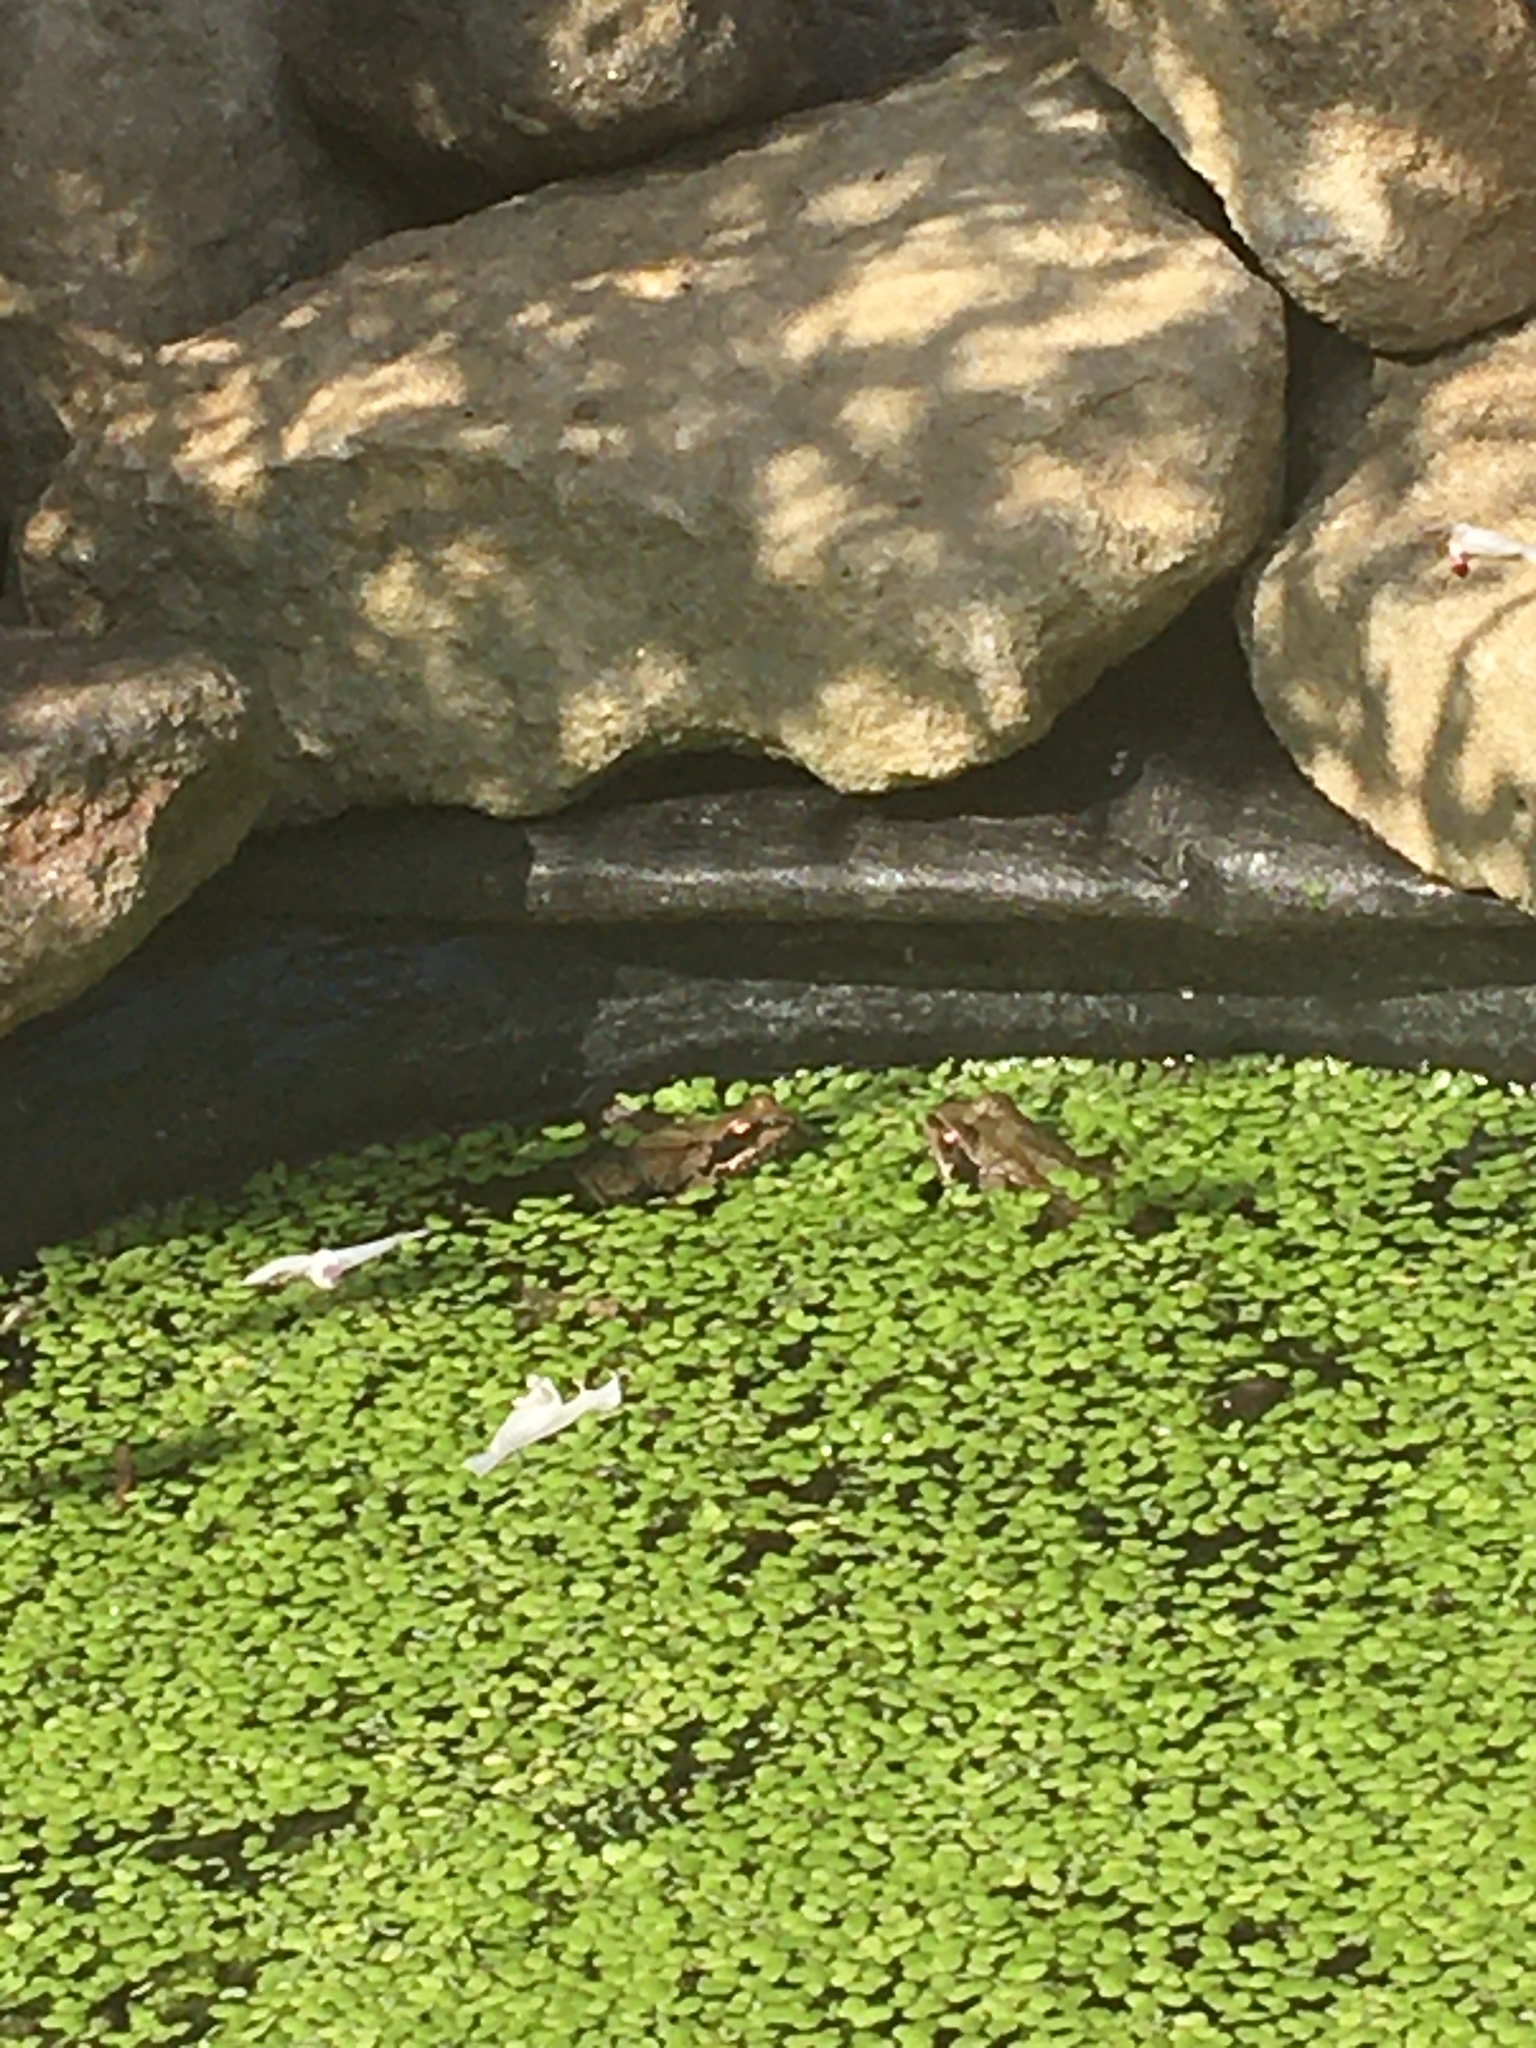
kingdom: Animalia
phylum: Chordata
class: Amphibia
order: Anura
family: Ranidae
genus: Rana
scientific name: Rana temporaria
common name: Common frog
